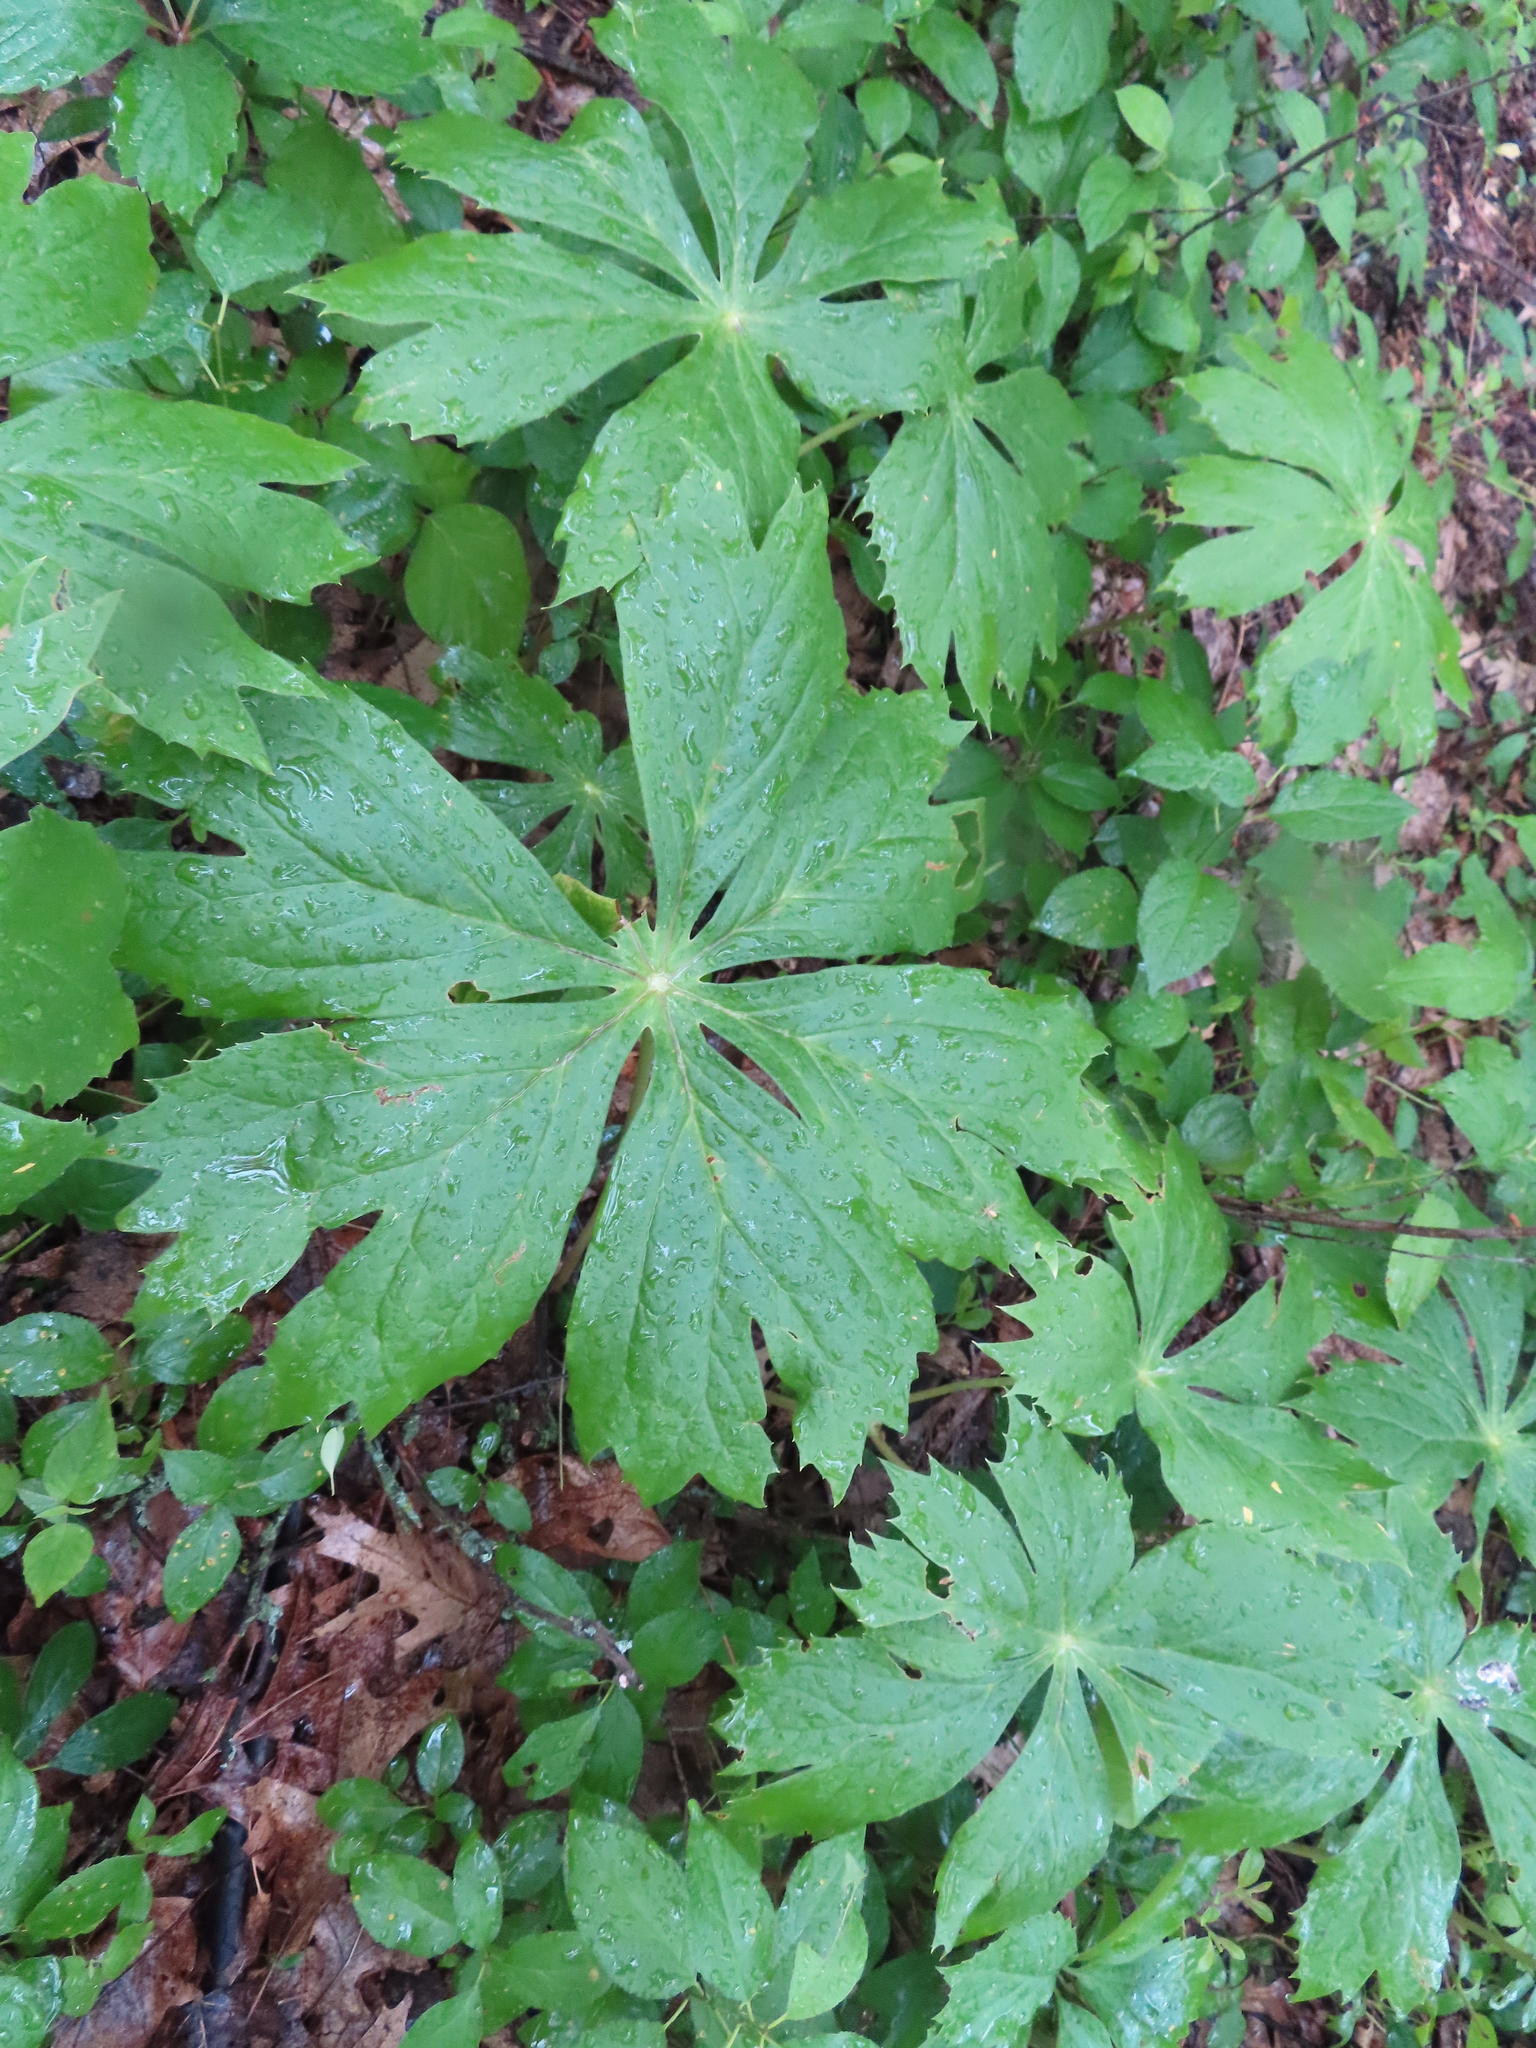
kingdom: Plantae
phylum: Tracheophyta
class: Magnoliopsida
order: Ranunculales
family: Berberidaceae
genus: Podophyllum
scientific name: Podophyllum peltatum
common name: Wild mandrake
